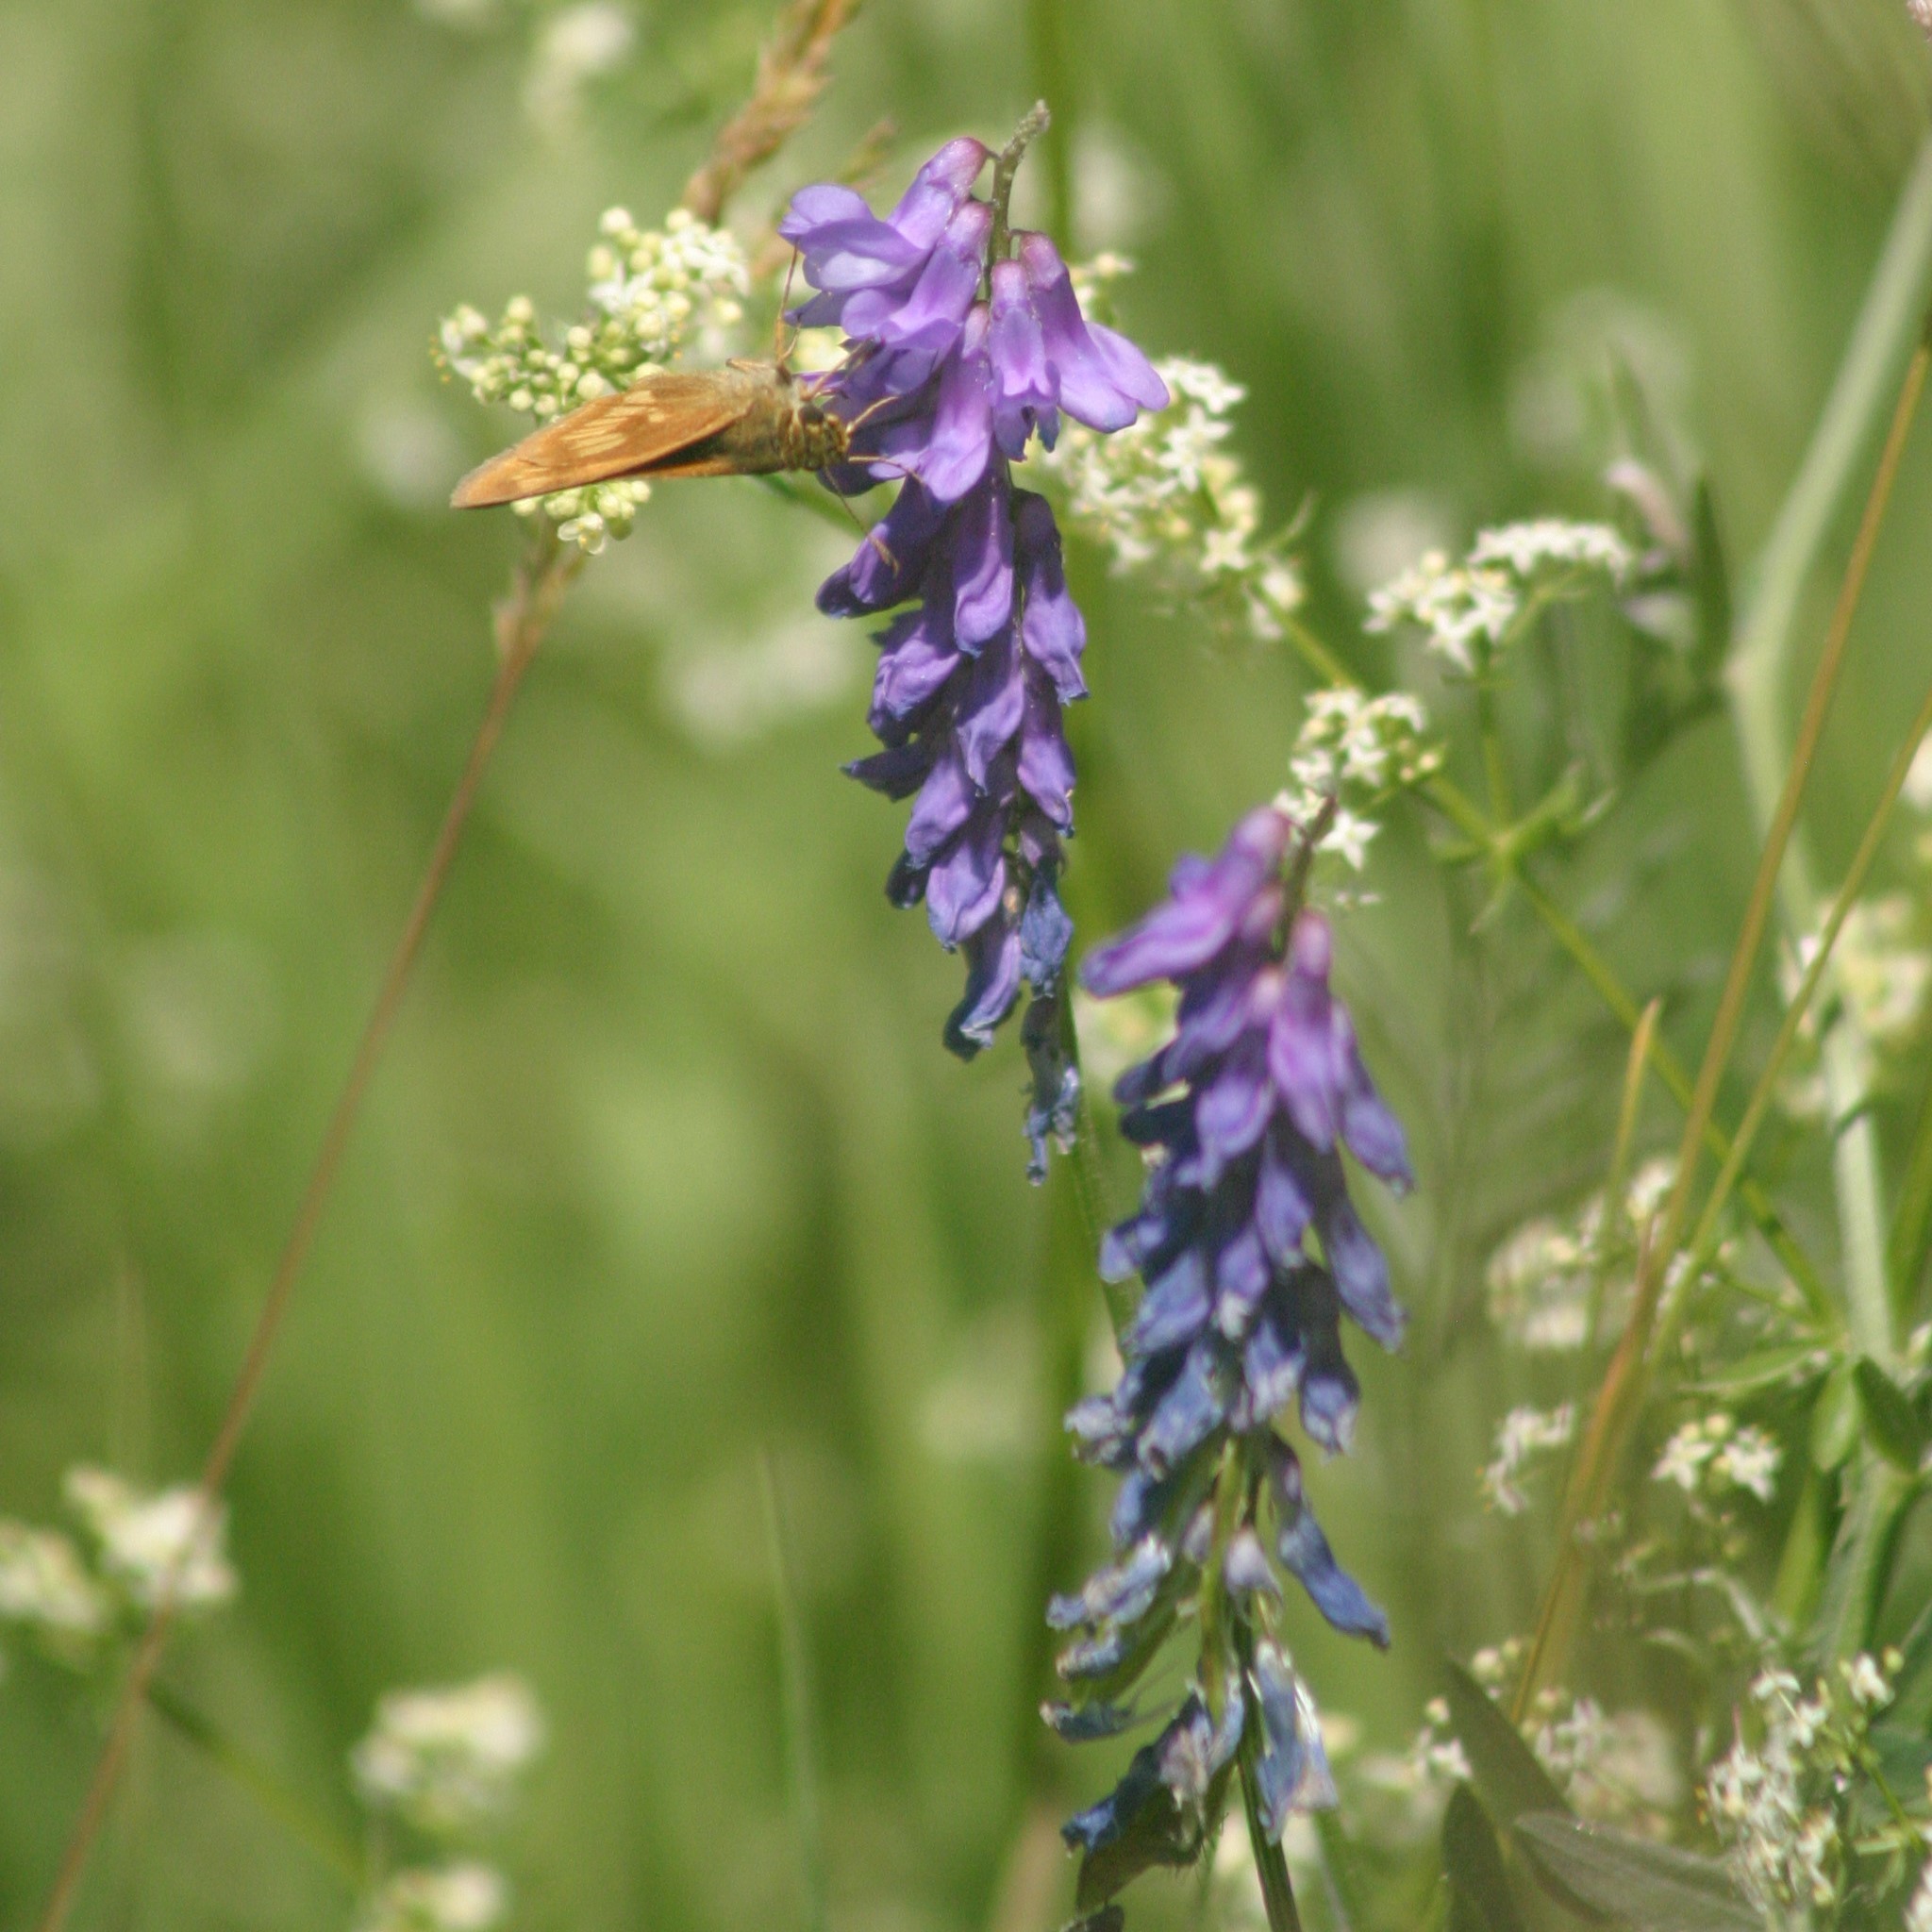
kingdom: Plantae
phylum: Tracheophyta
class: Magnoliopsida
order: Fabales
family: Fabaceae
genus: Vicia
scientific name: Vicia cracca
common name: Bird vetch
